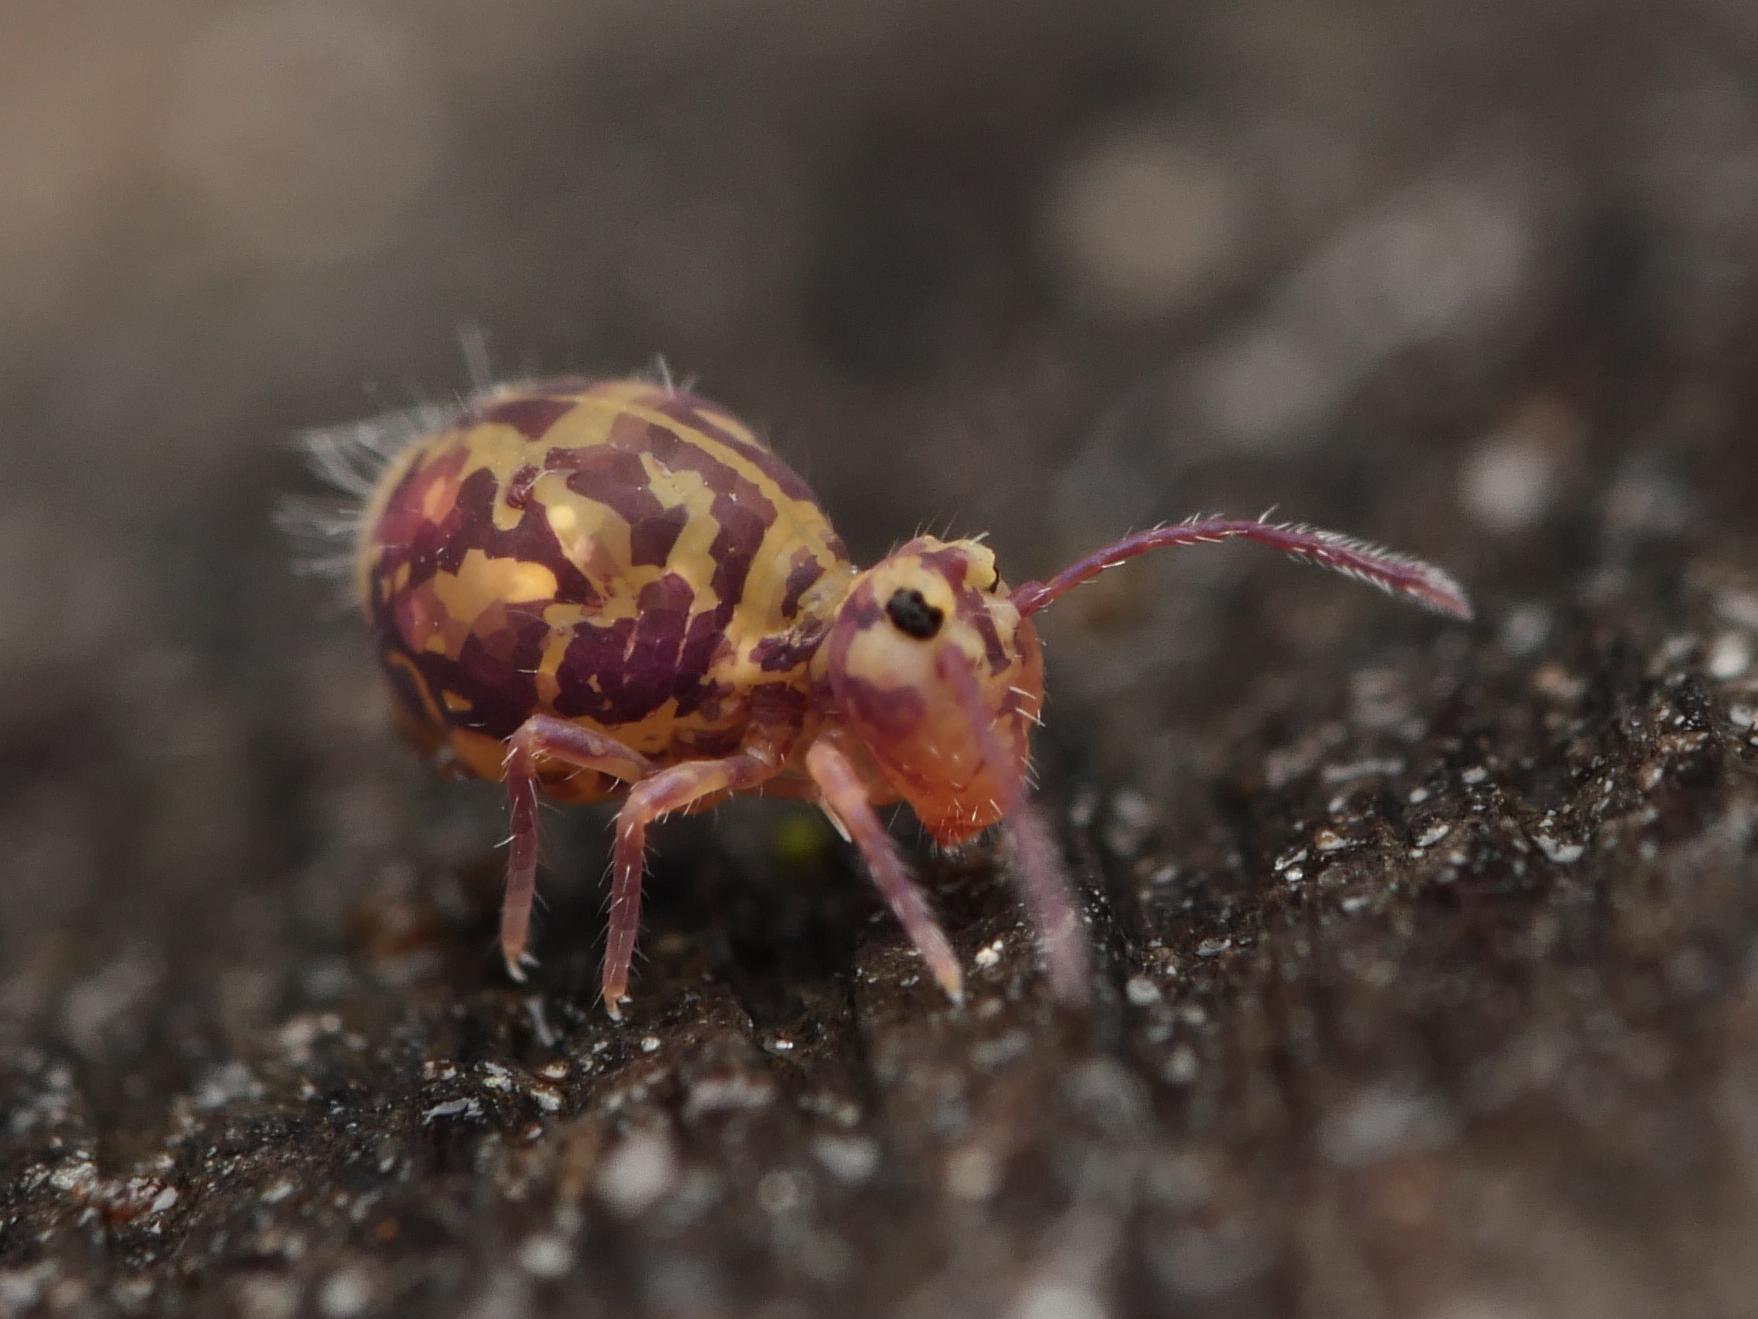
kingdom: Animalia
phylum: Arthropoda
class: Collembola
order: Symphypleona
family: Dicyrtomidae
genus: Dicyrtomina
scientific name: Dicyrtomina ornata
